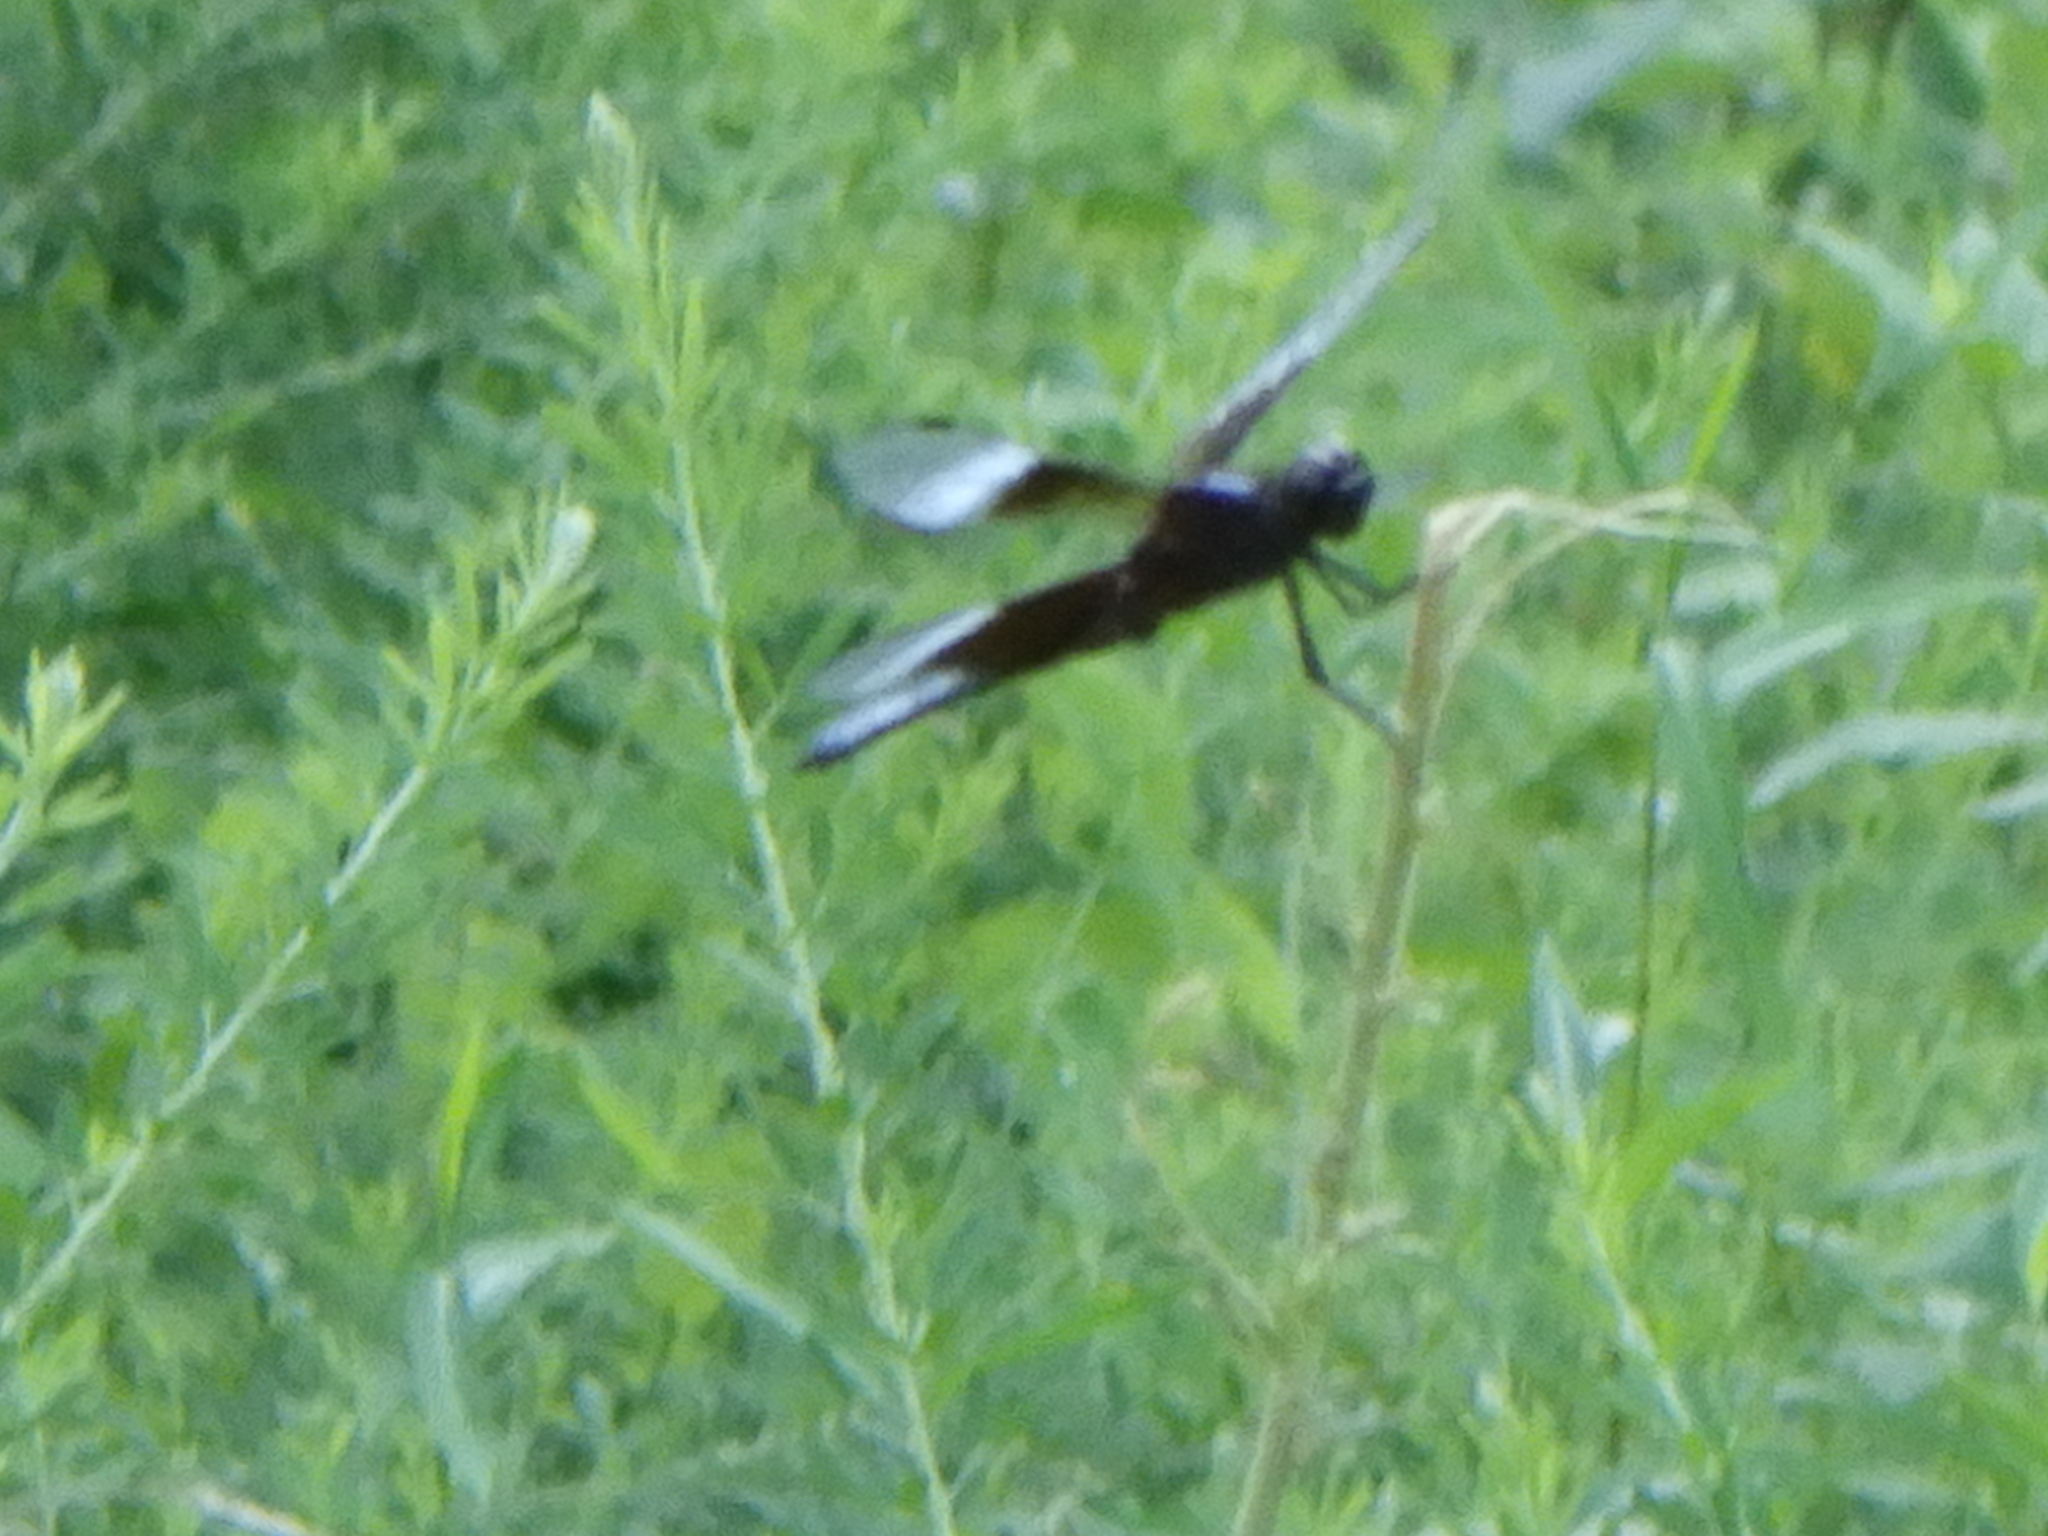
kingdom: Animalia
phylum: Arthropoda
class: Insecta
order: Odonata
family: Libellulidae
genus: Libellula
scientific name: Libellula luctuosa
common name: Widow skimmer
